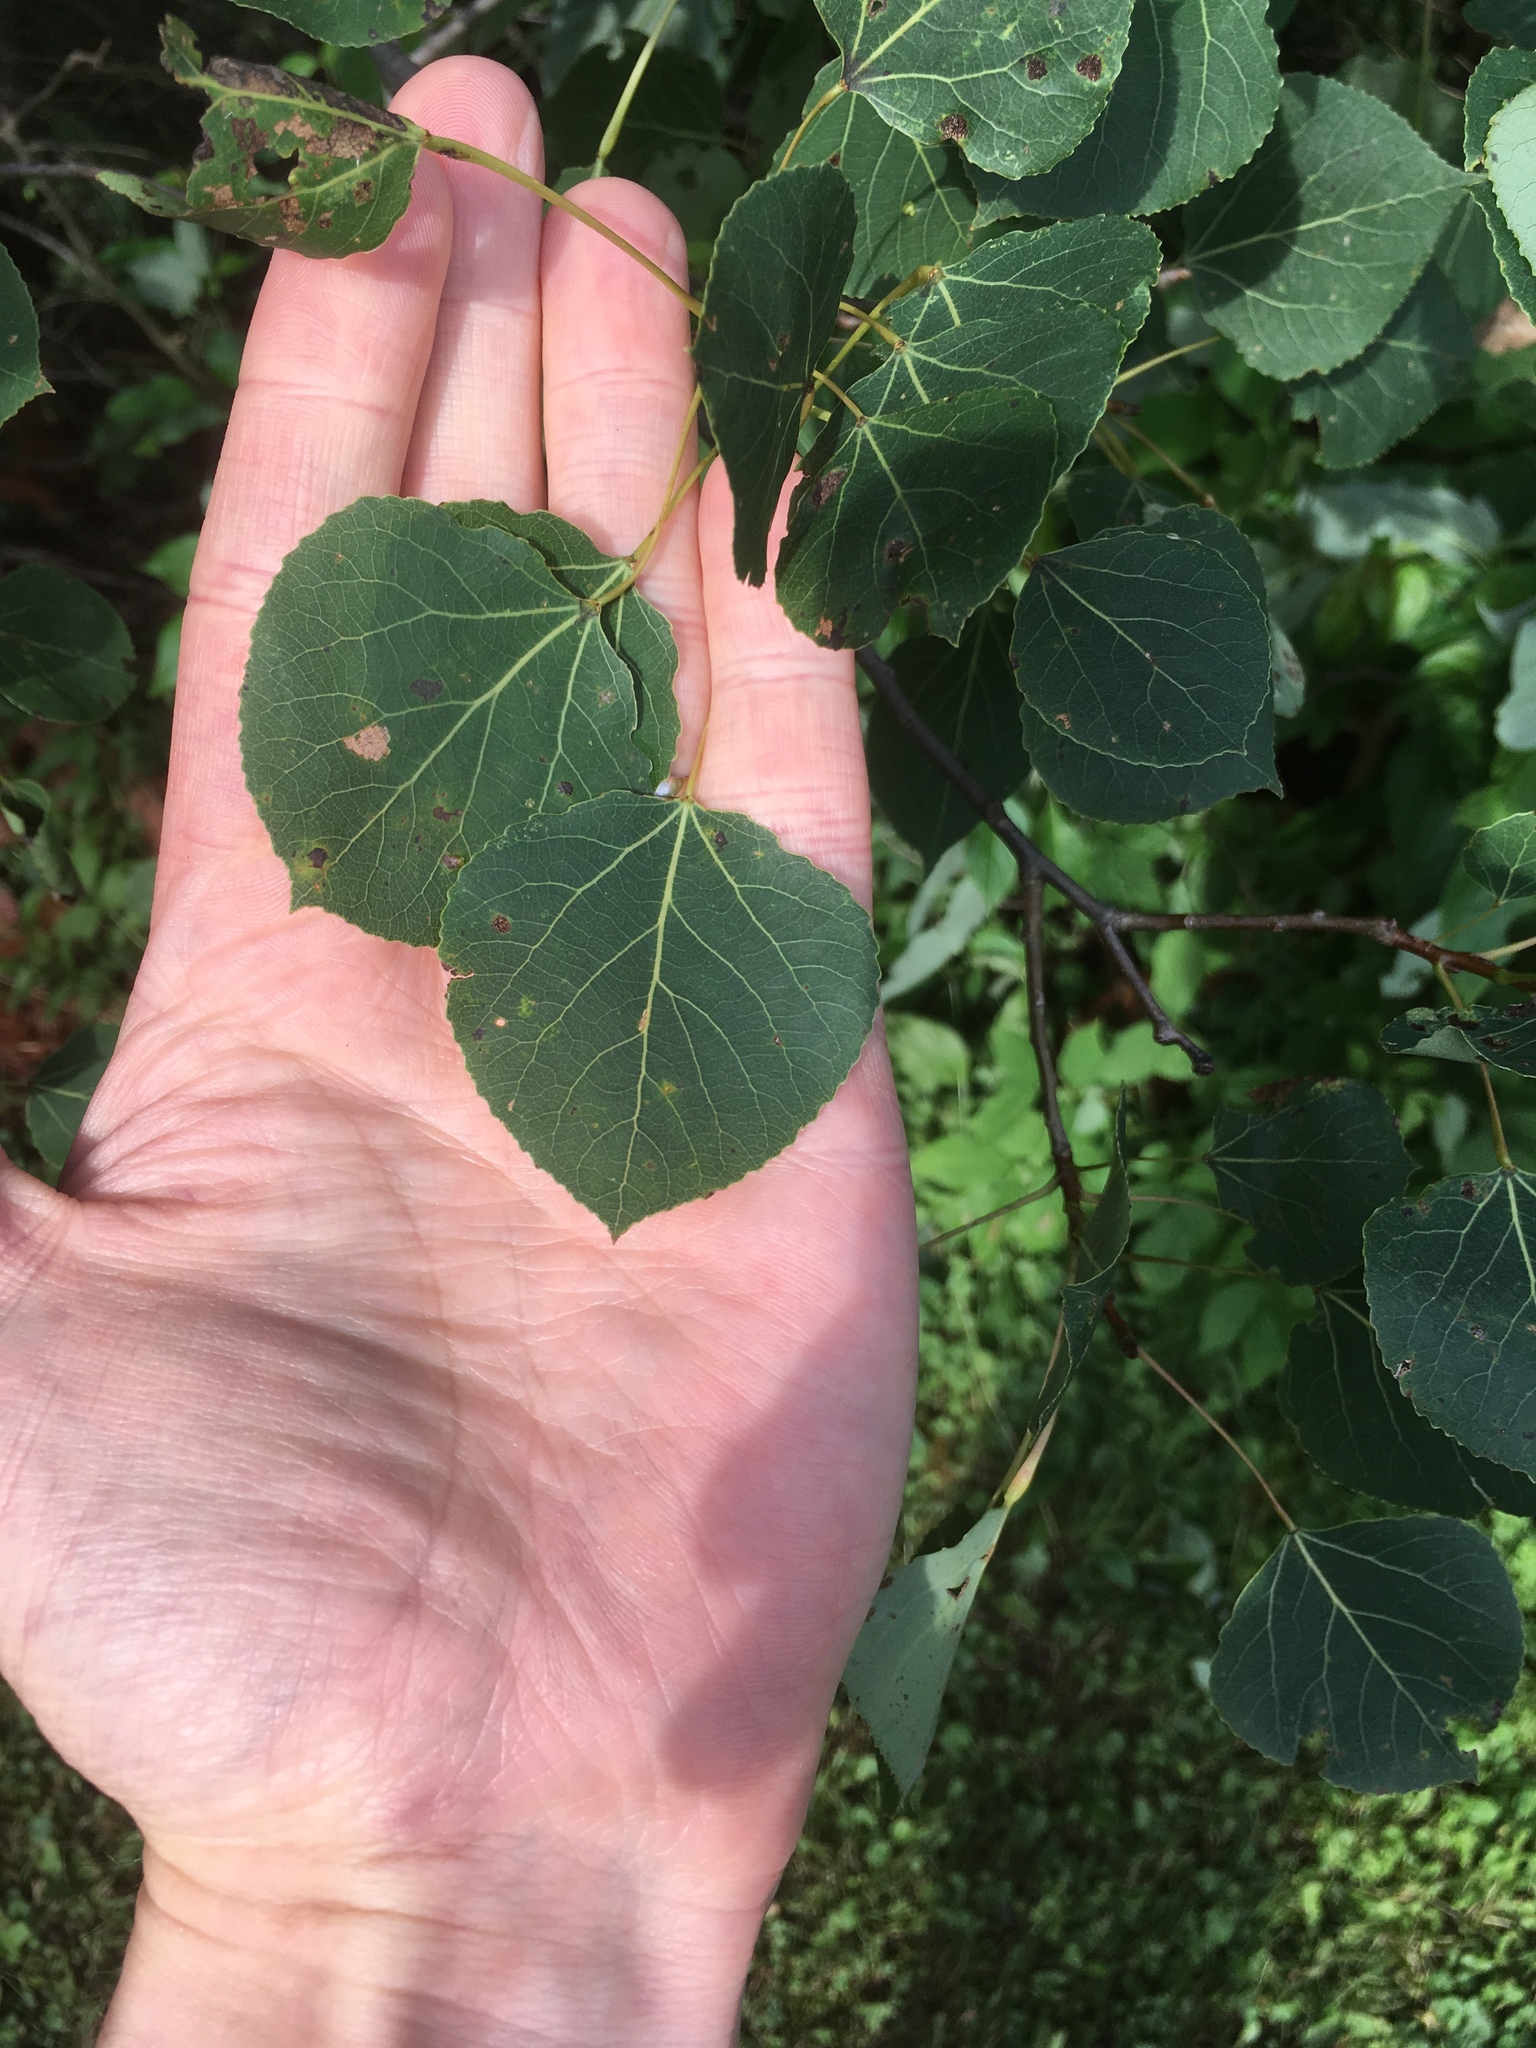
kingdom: Plantae
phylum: Tracheophyta
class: Magnoliopsida
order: Malpighiales
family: Salicaceae
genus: Populus
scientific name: Populus tremuloides
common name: Quaking aspen
